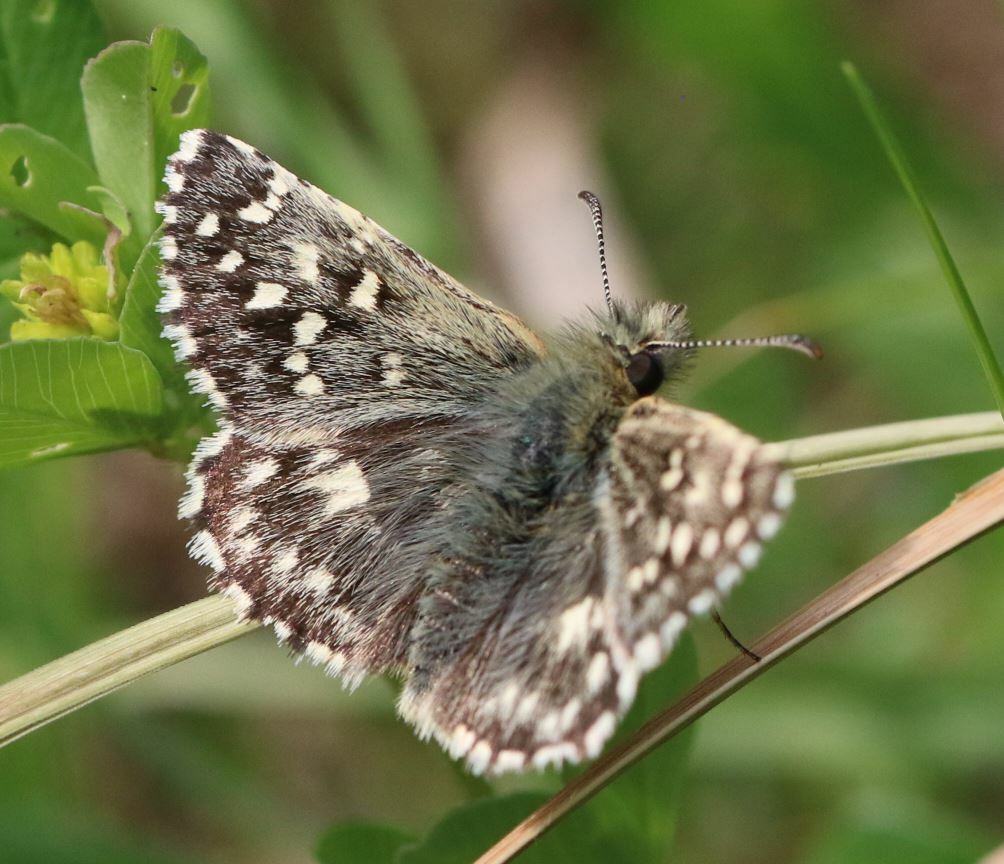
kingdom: Animalia
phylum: Arthropoda
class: Insecta
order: Lepidoptera
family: Hesperiidae
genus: Pyrgus
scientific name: Pyrgus malvoides
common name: Southern grizzled skipper
